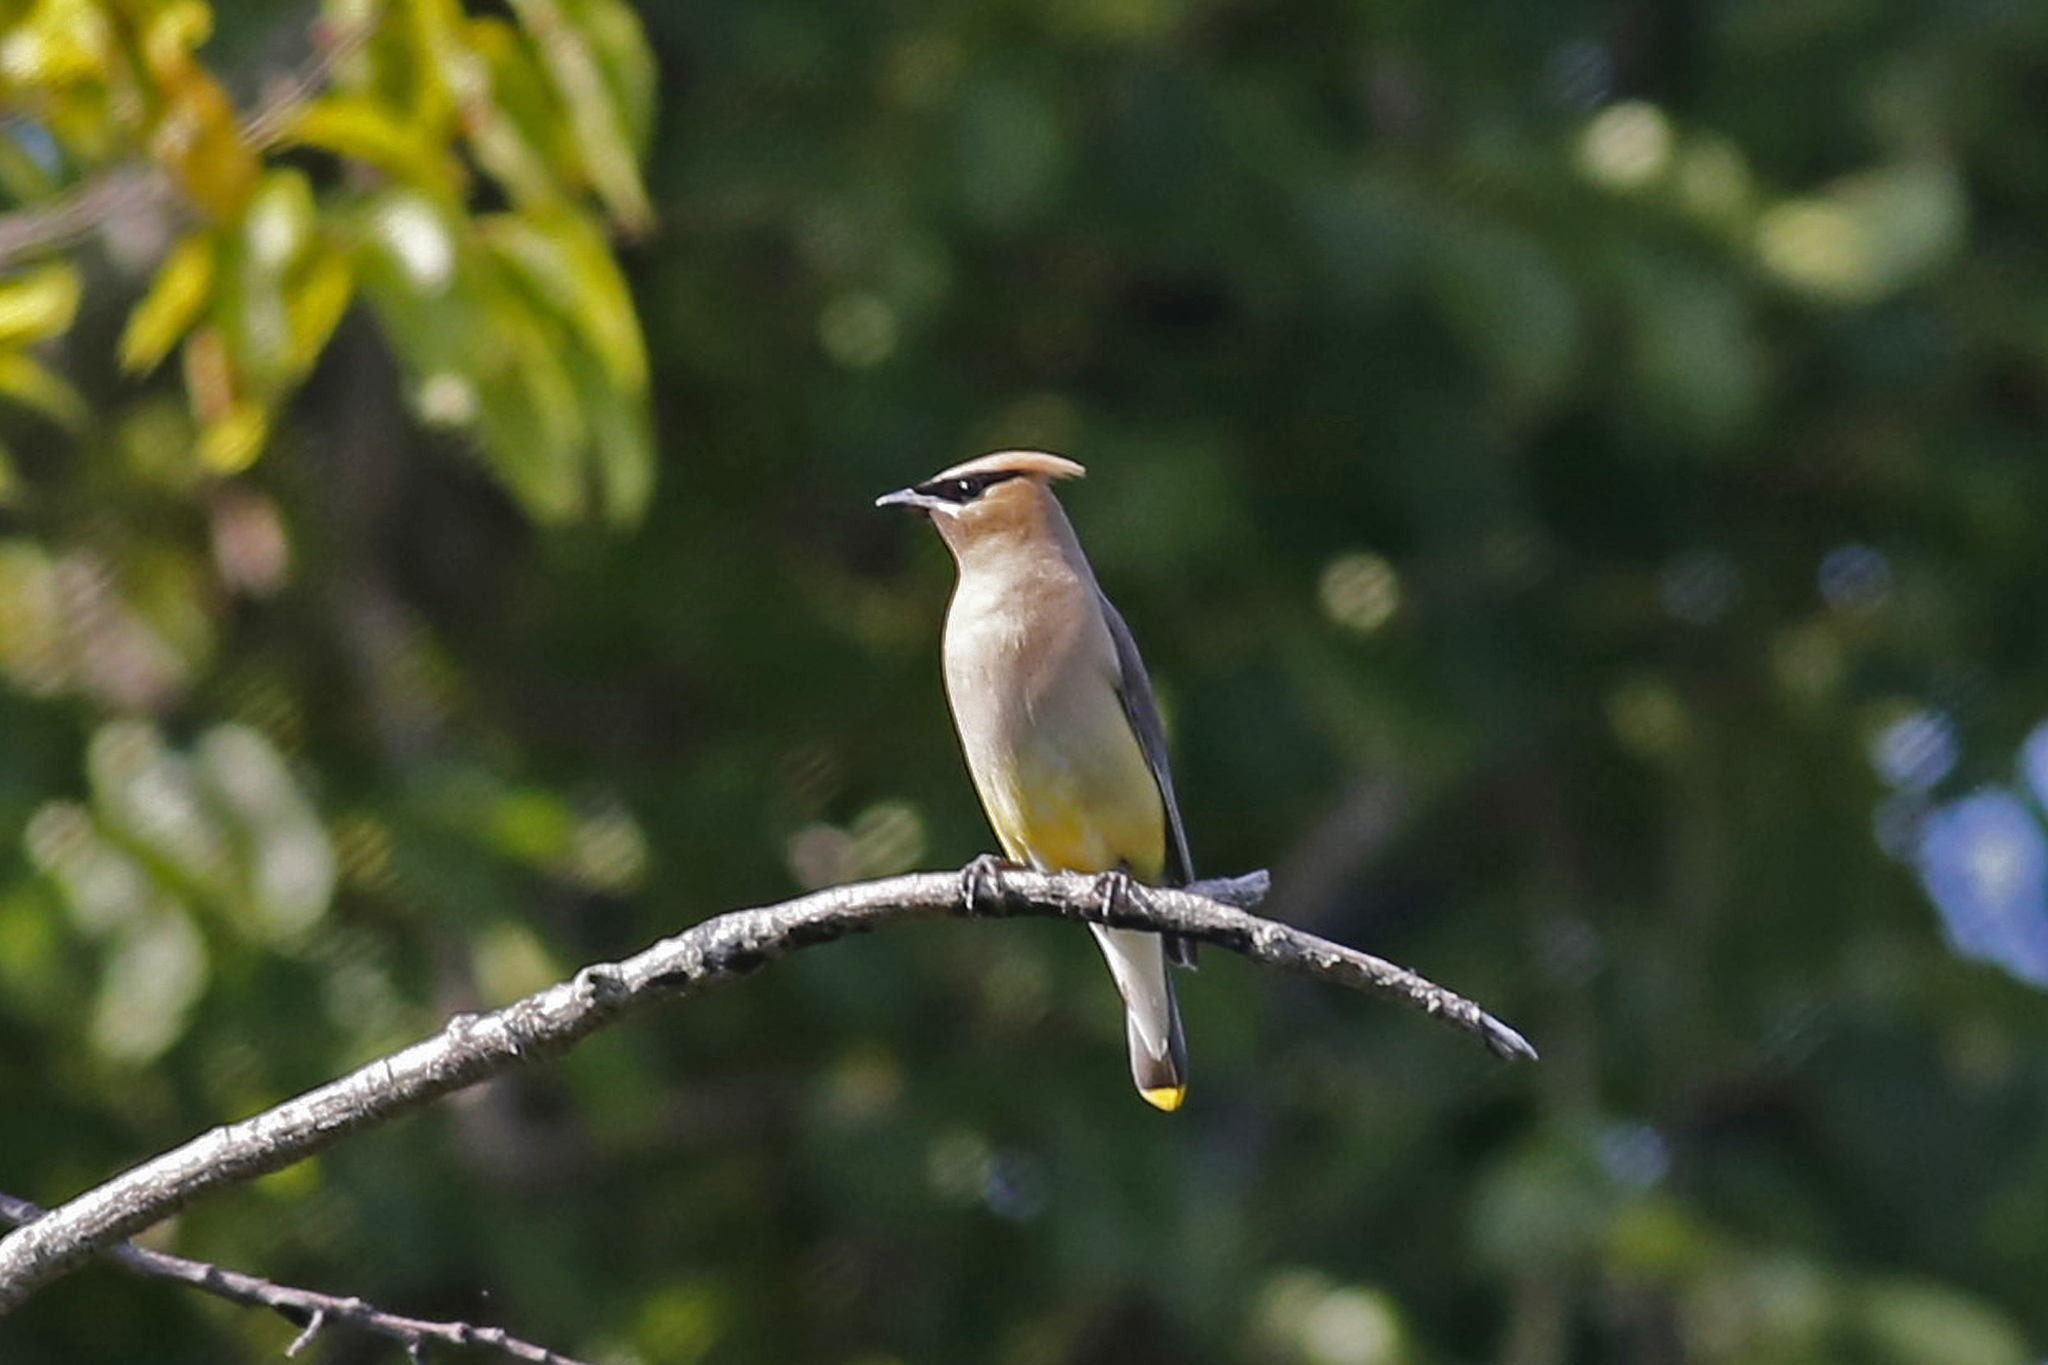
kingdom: Animalia
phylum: Chordata
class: Aves
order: Passeriformes
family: Bombycillidae
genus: Bombycilla
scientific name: Bombycilla cedrorum
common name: Cedar waxwing
